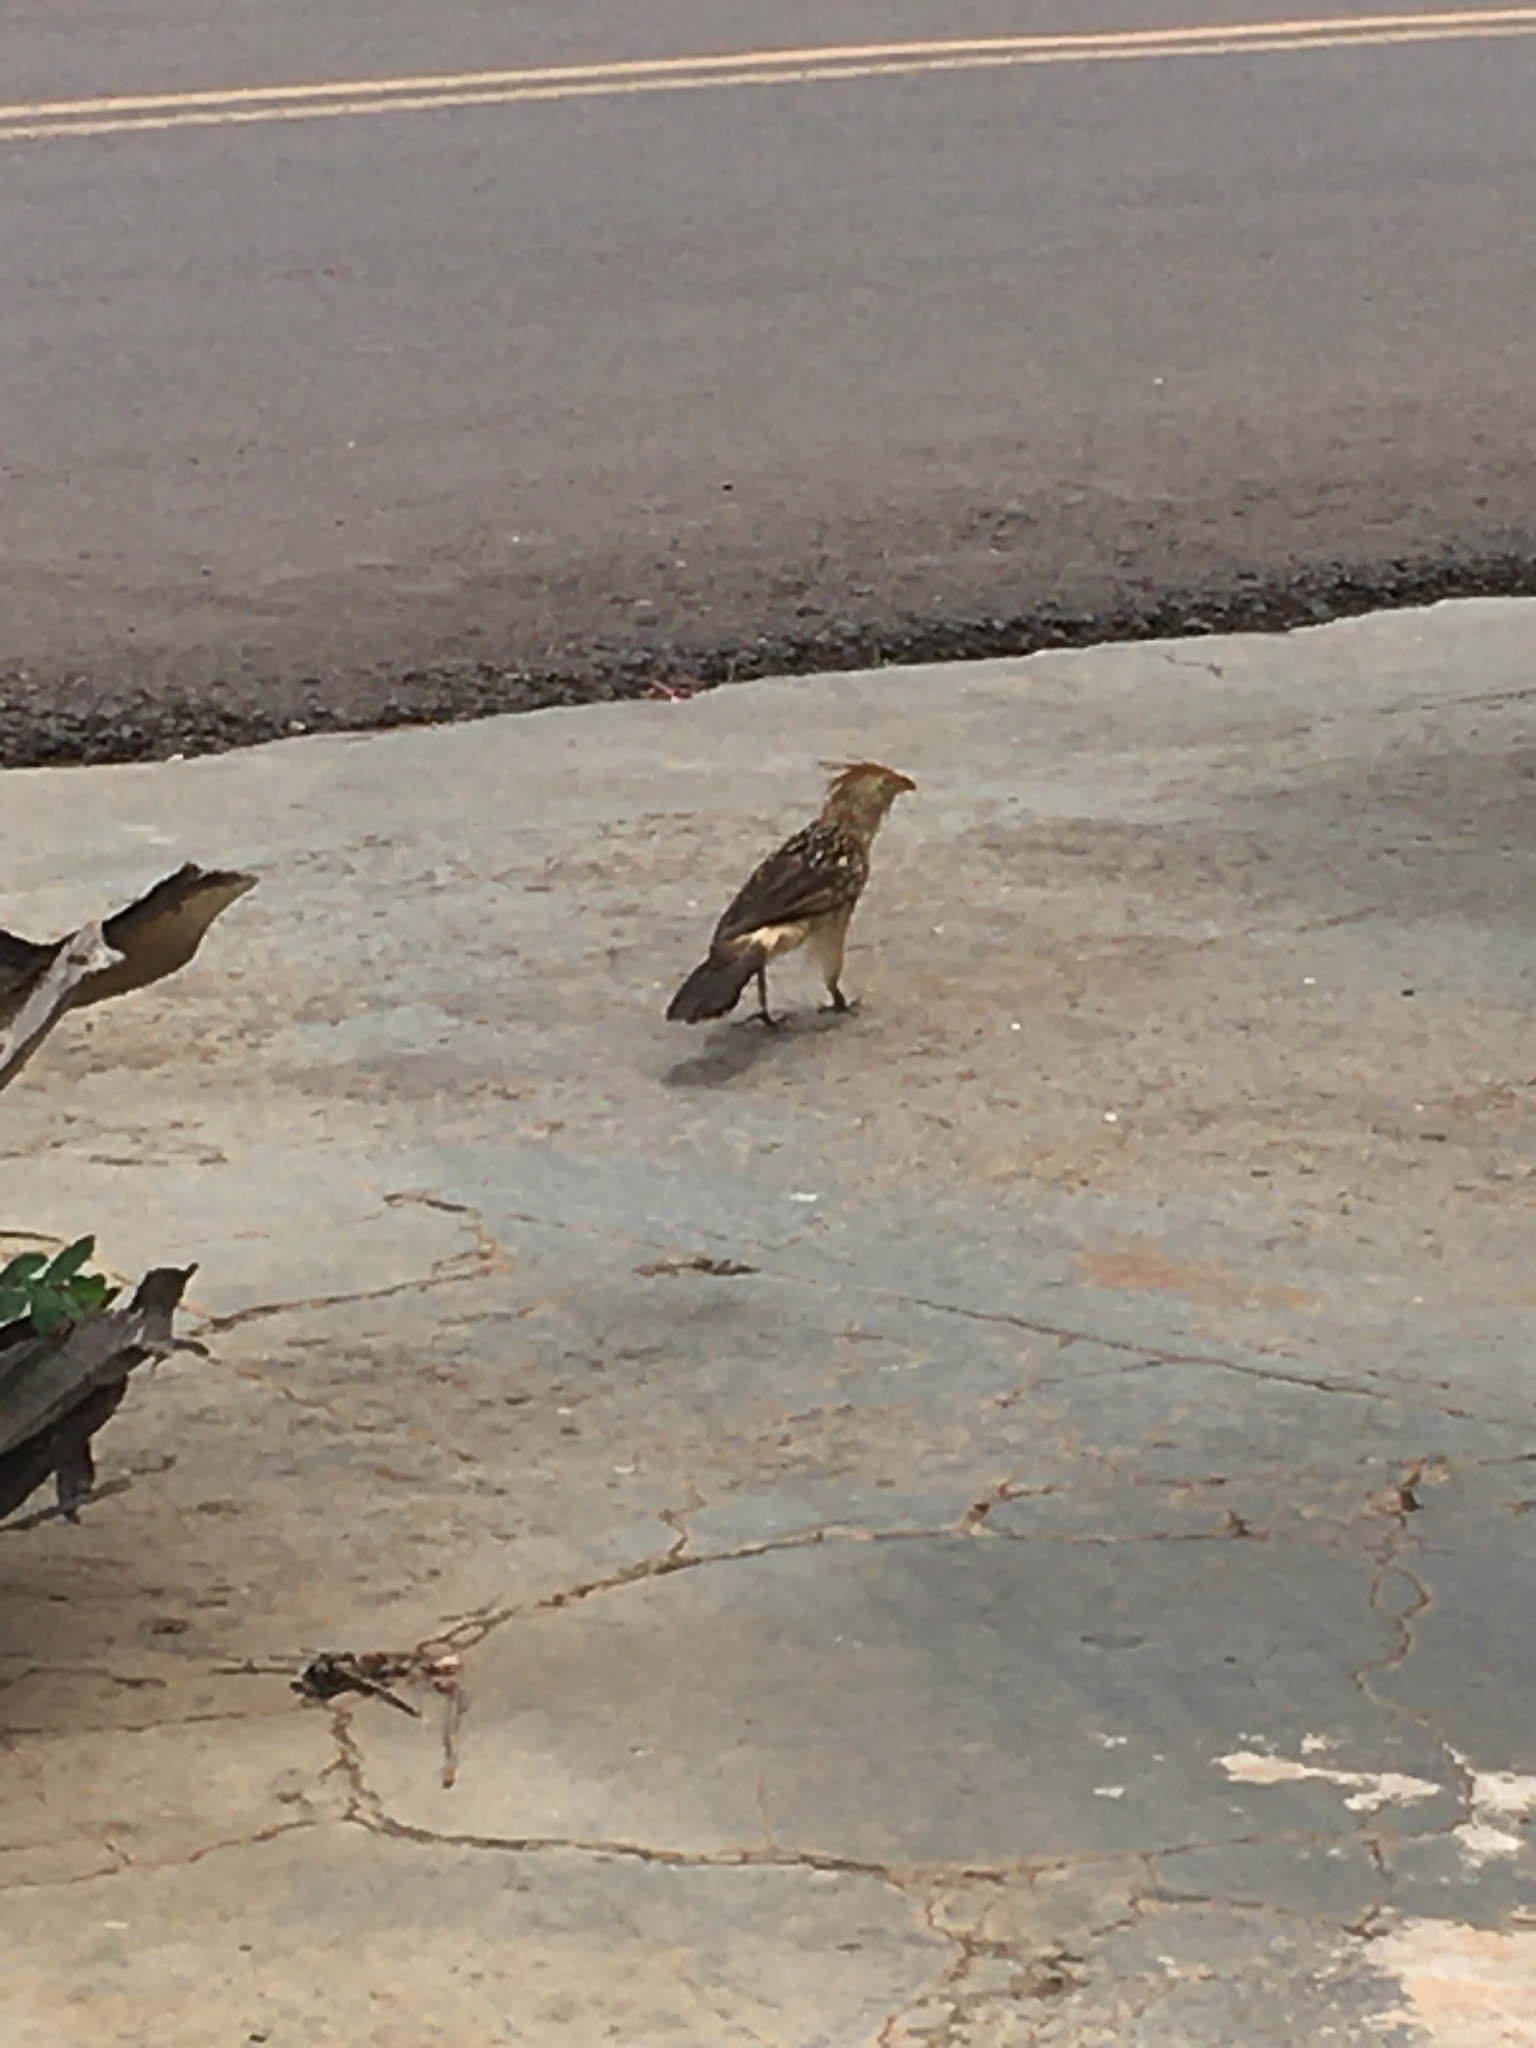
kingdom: Animalia
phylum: Chordata
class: Aves
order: Cuculiformes
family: Cuculidae
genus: Guira
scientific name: Guira guira
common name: Guira cuckoo
